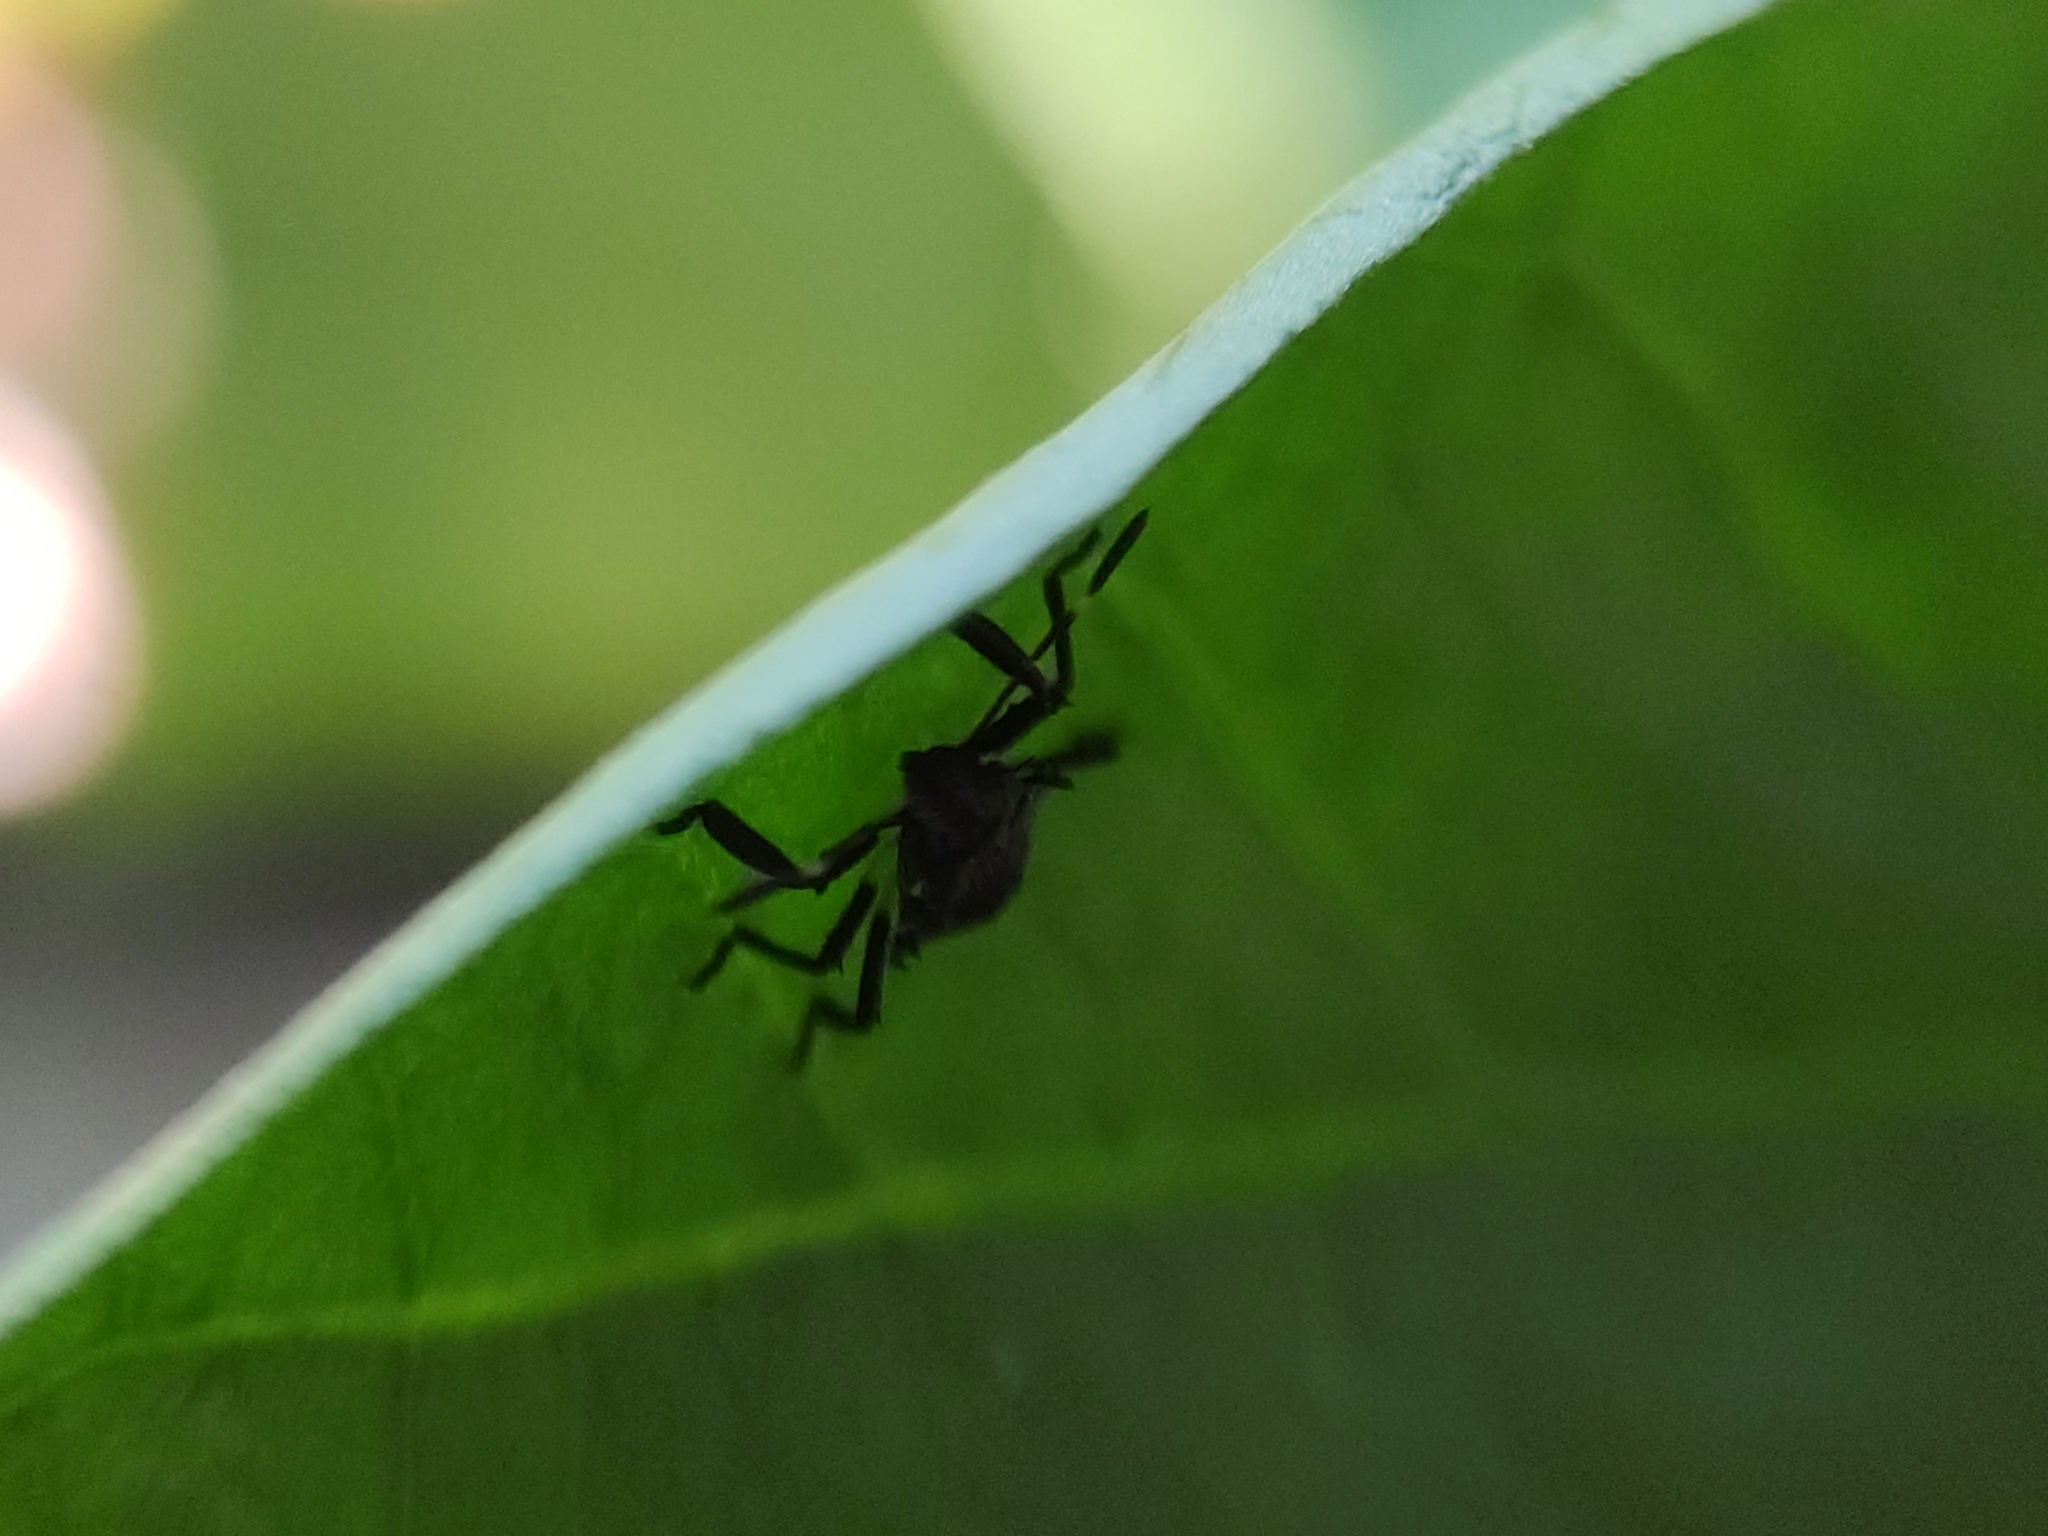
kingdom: Animalia
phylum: Arthropoda
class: Insecta
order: Hemiptera
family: Pentatomidae
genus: Halyomorpha
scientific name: Halyomorpha halys
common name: Brown marmorated stink bug
